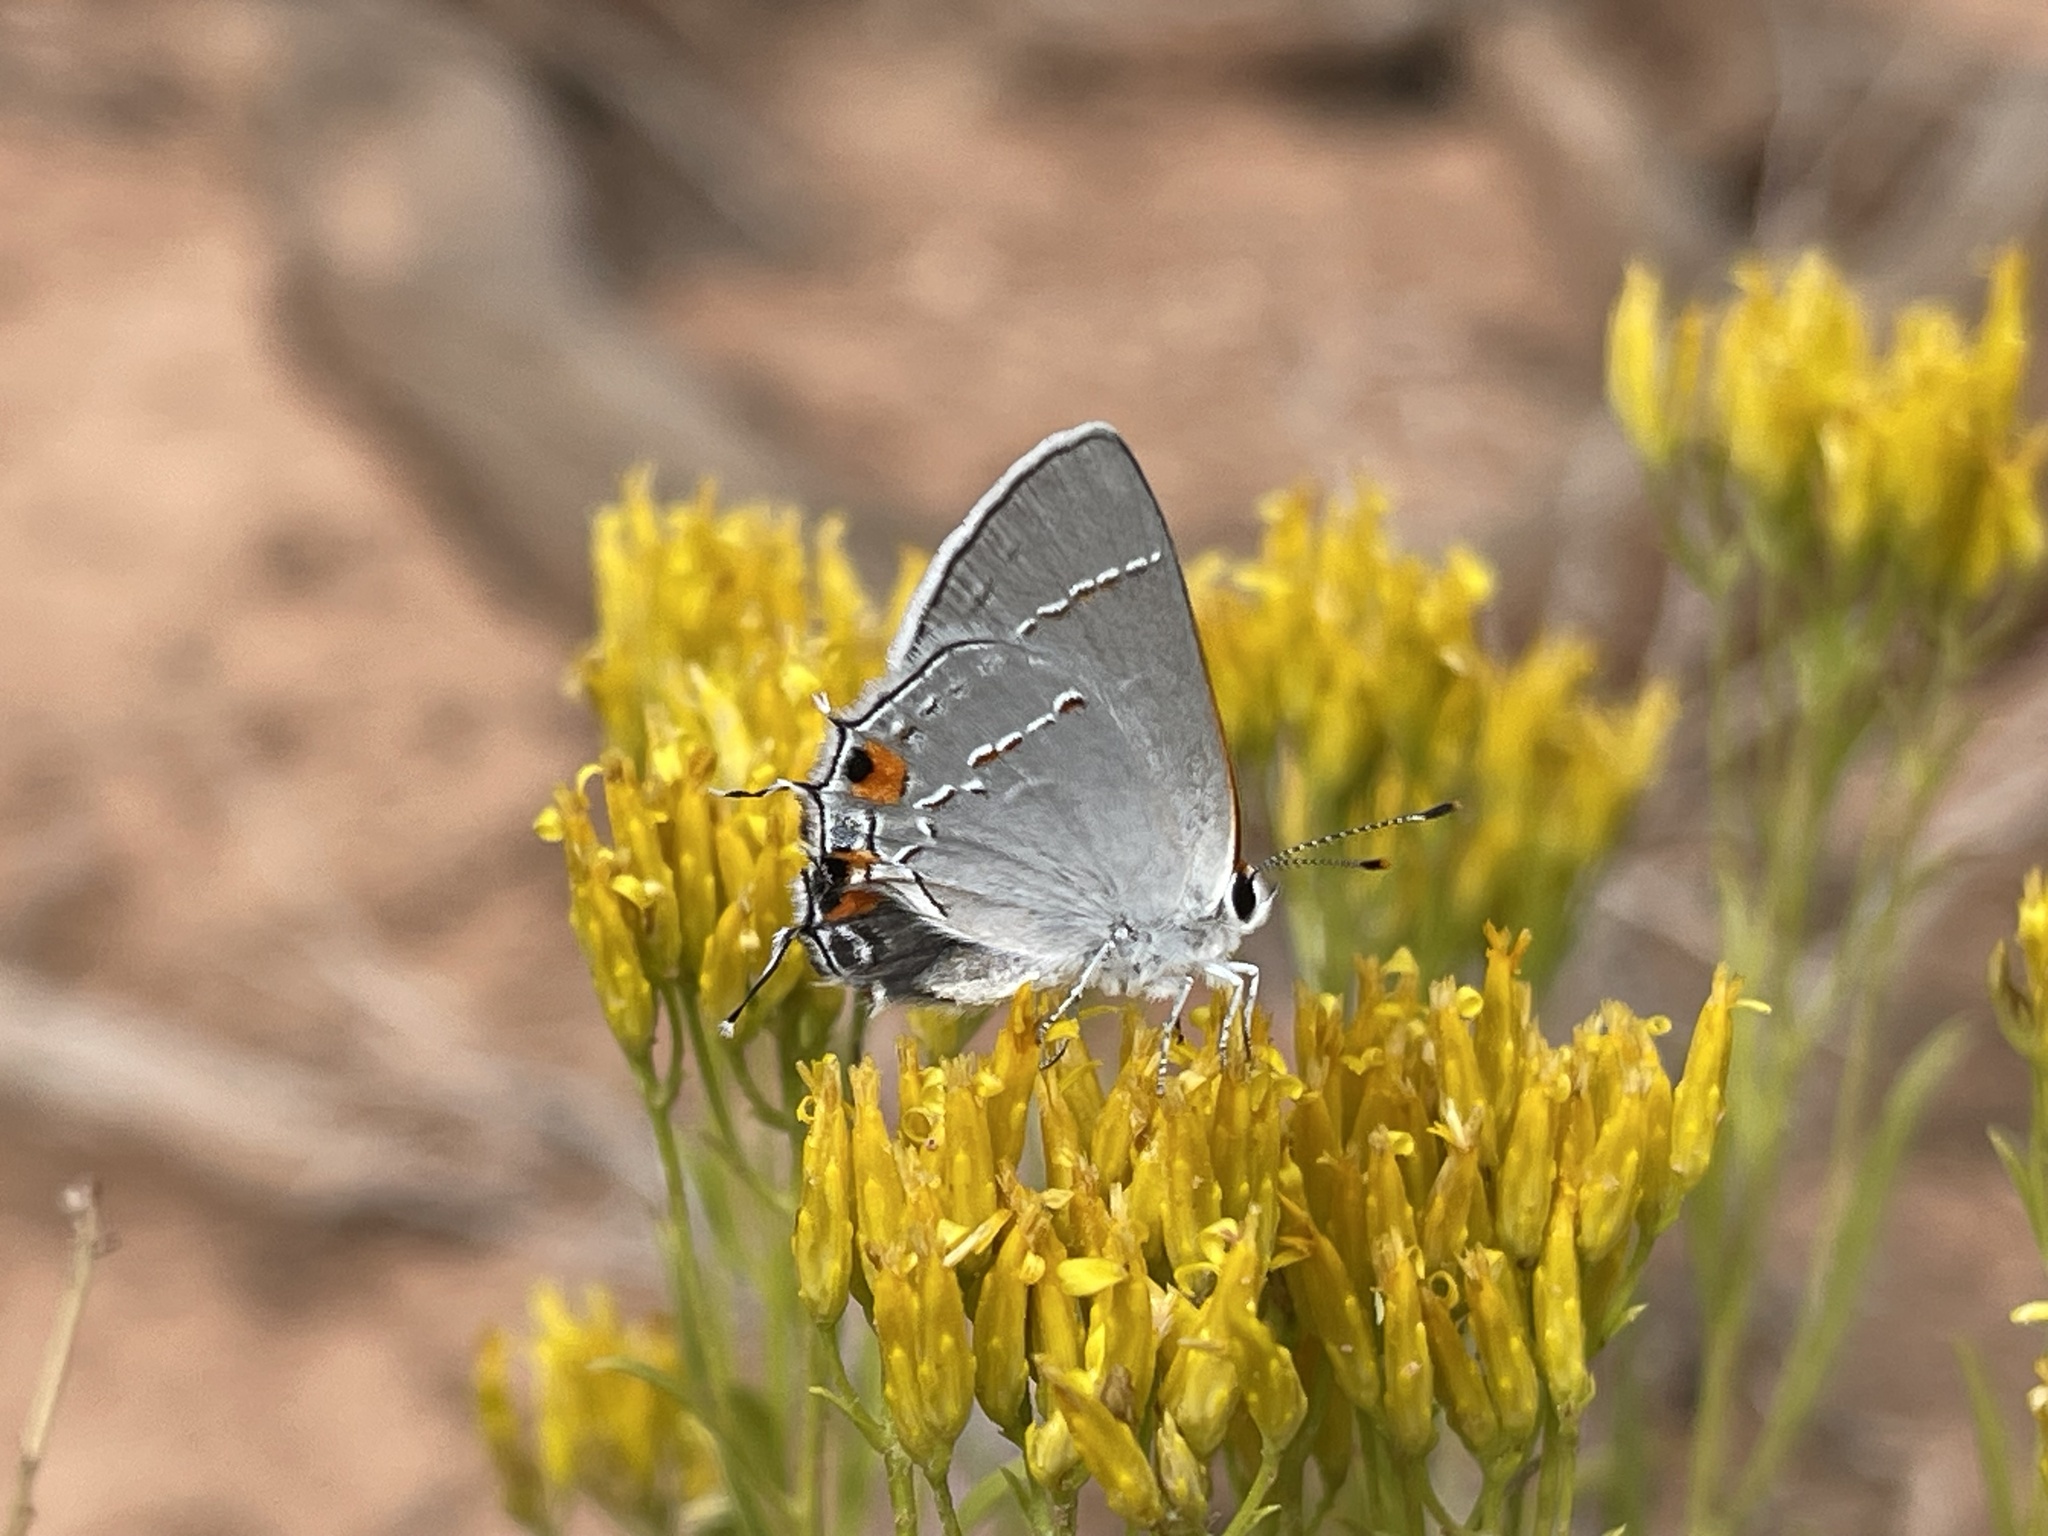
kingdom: Animalia
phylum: Arthropoda
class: Insecta
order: Lepidoptera
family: Lycaenidae
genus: Strymon
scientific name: Strymon melinus
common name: Gray hairstreak
